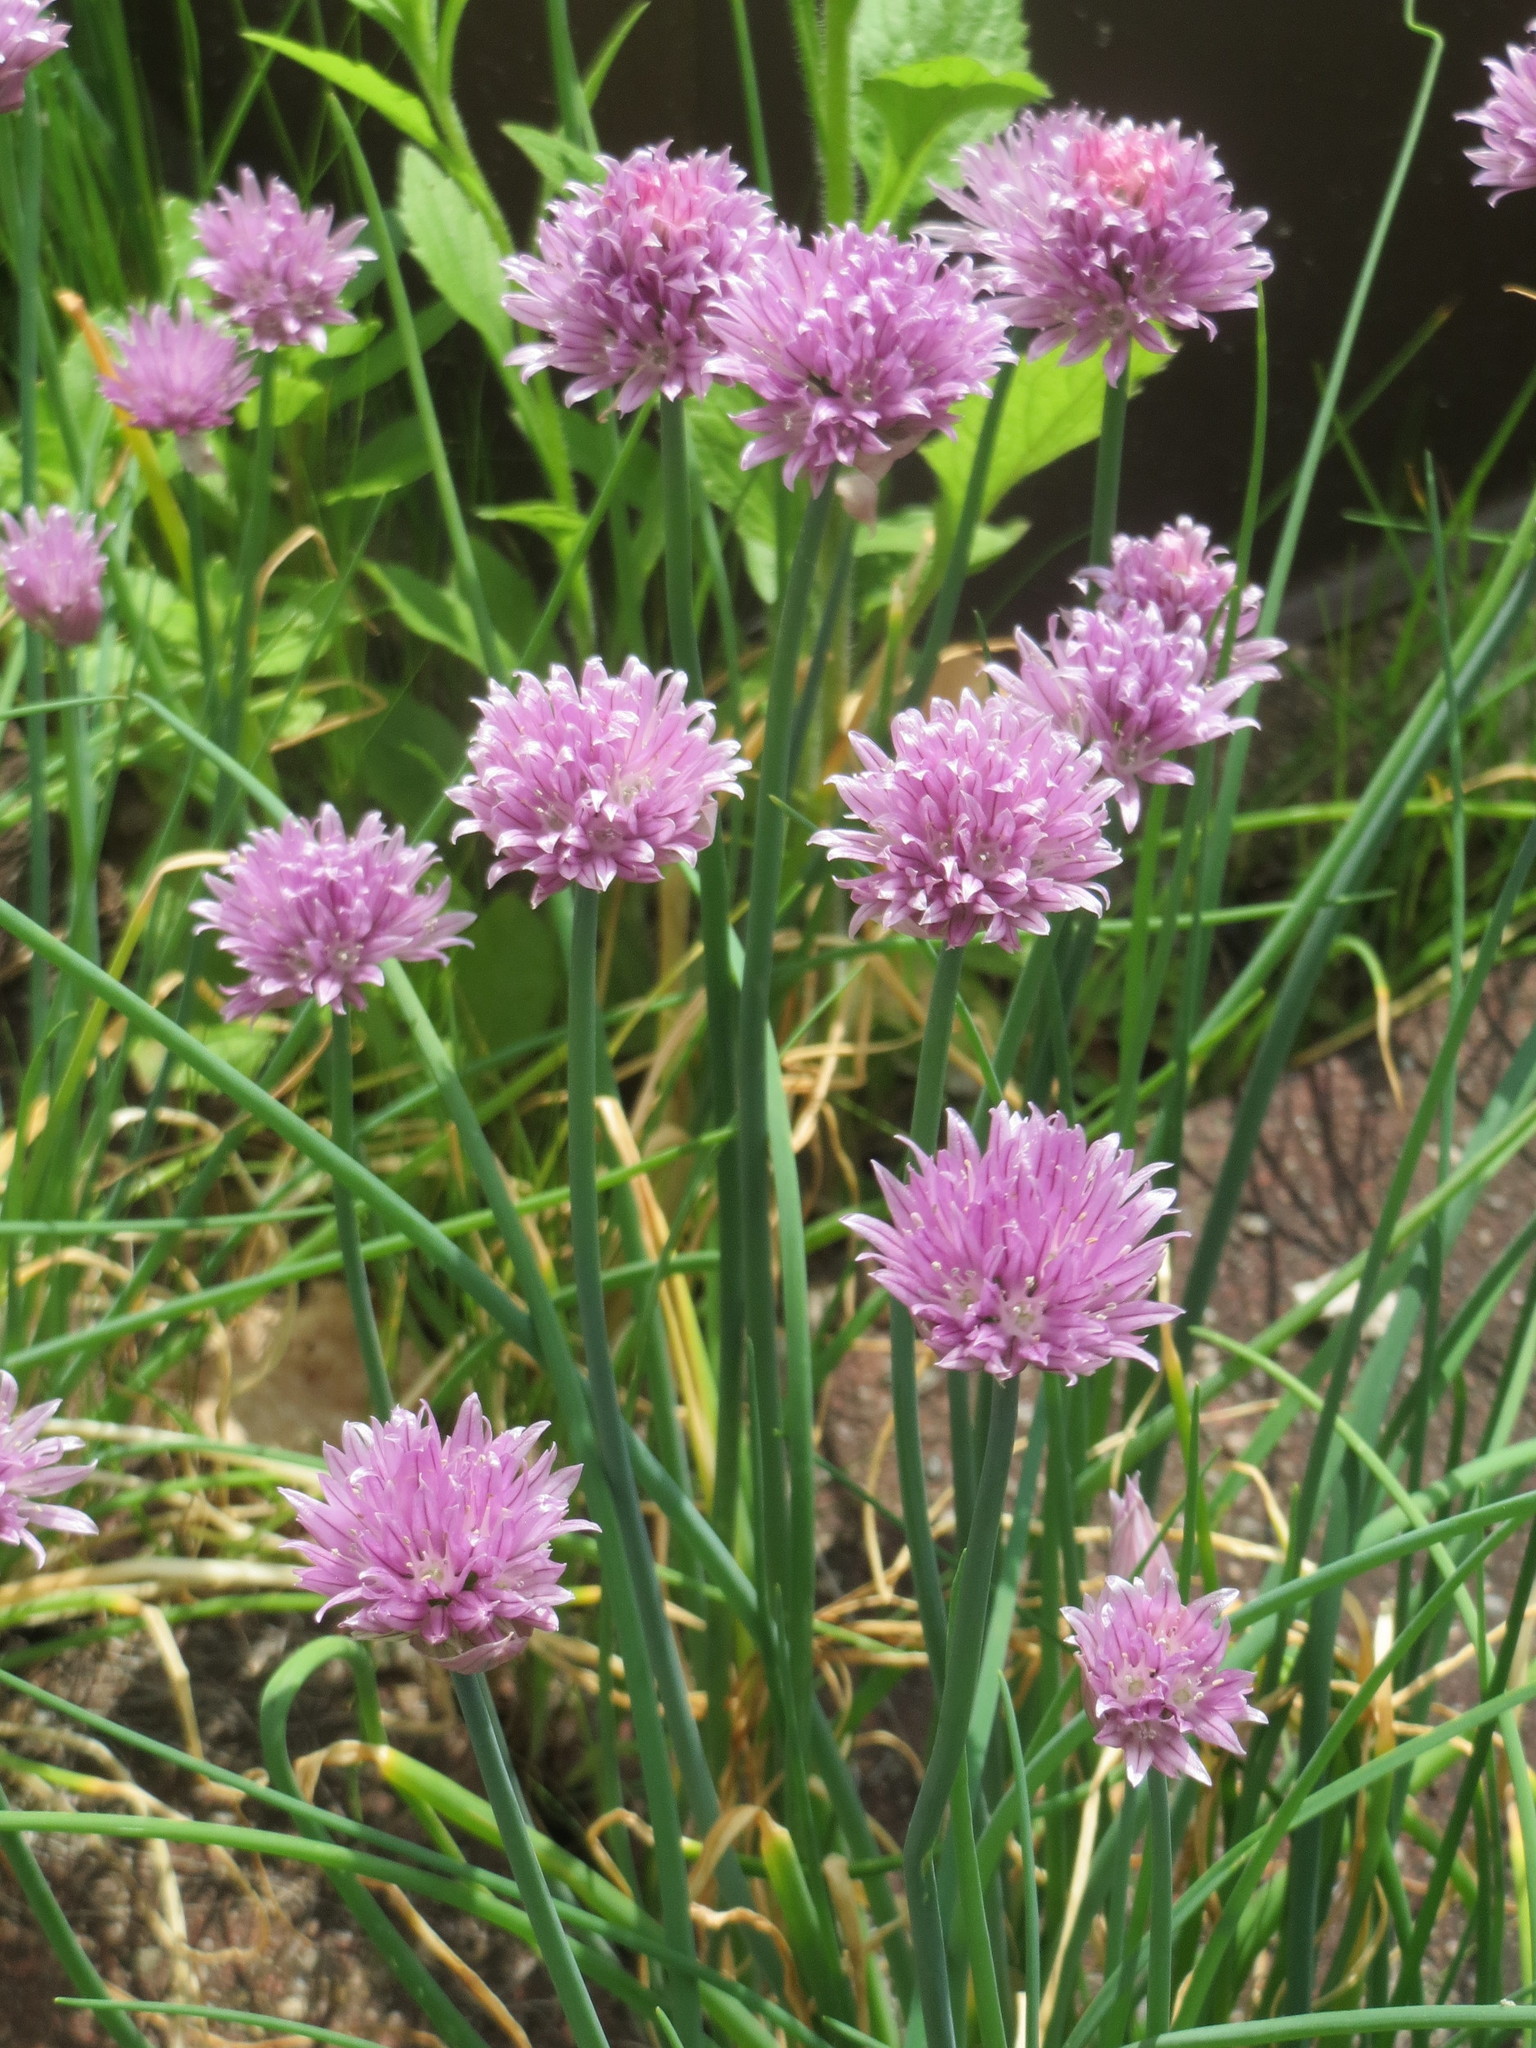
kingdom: Plantae
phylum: Tracheophyta
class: Liliopsida
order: Asparagales
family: Amaryllidaceae
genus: Allium
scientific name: Allium schoenoprasum
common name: Chives
